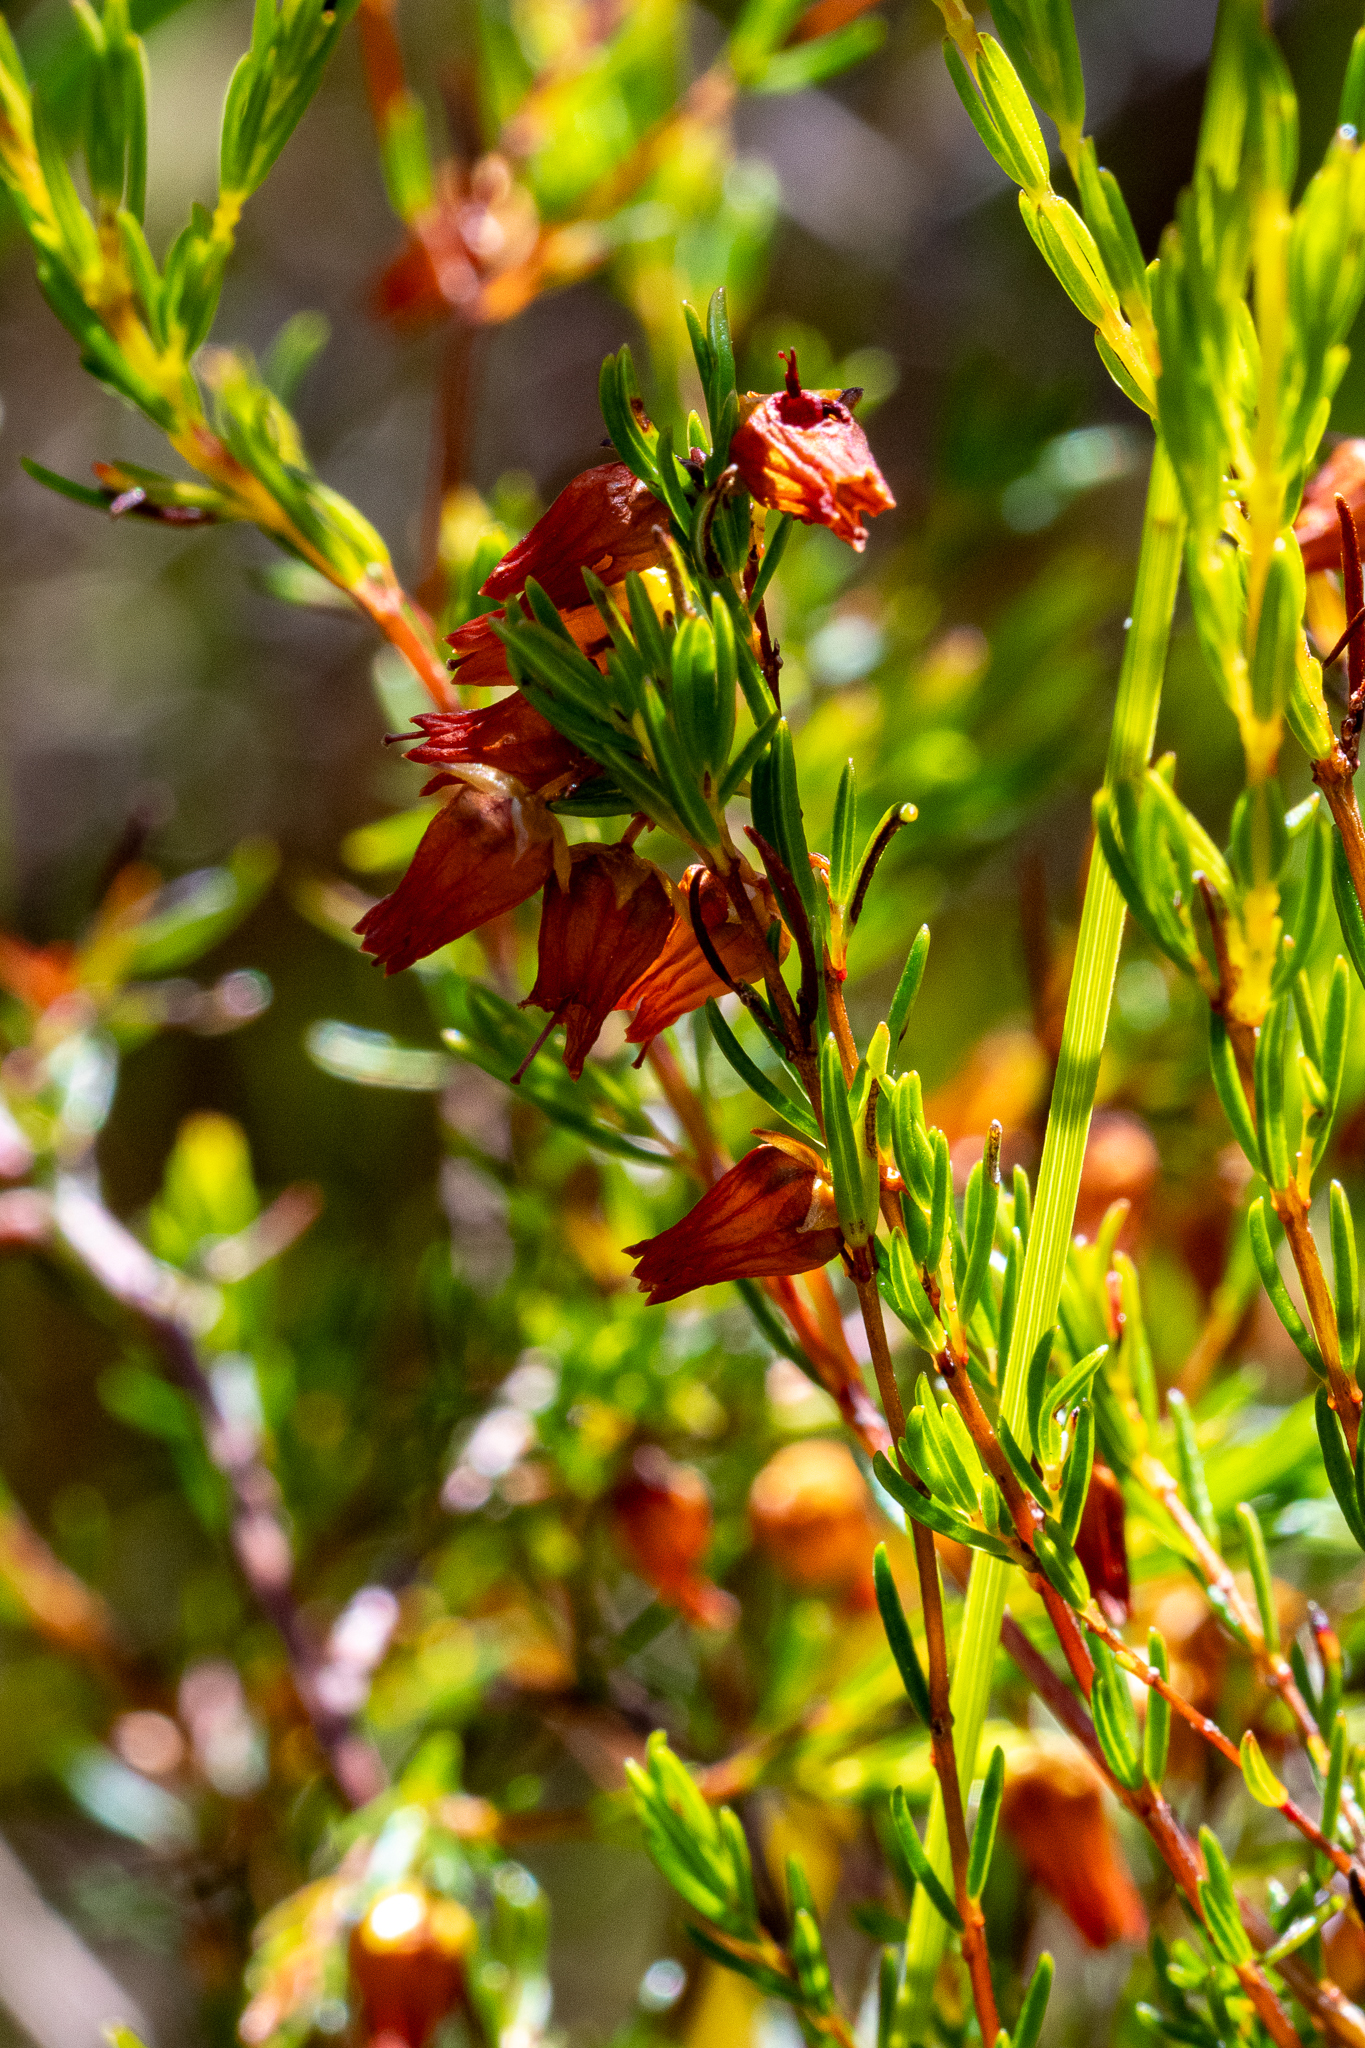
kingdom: Plantae
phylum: Tracheophyta
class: Magnoliopsida
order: Ericales
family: Ericaceae
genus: Erica
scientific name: Erica campanularis
